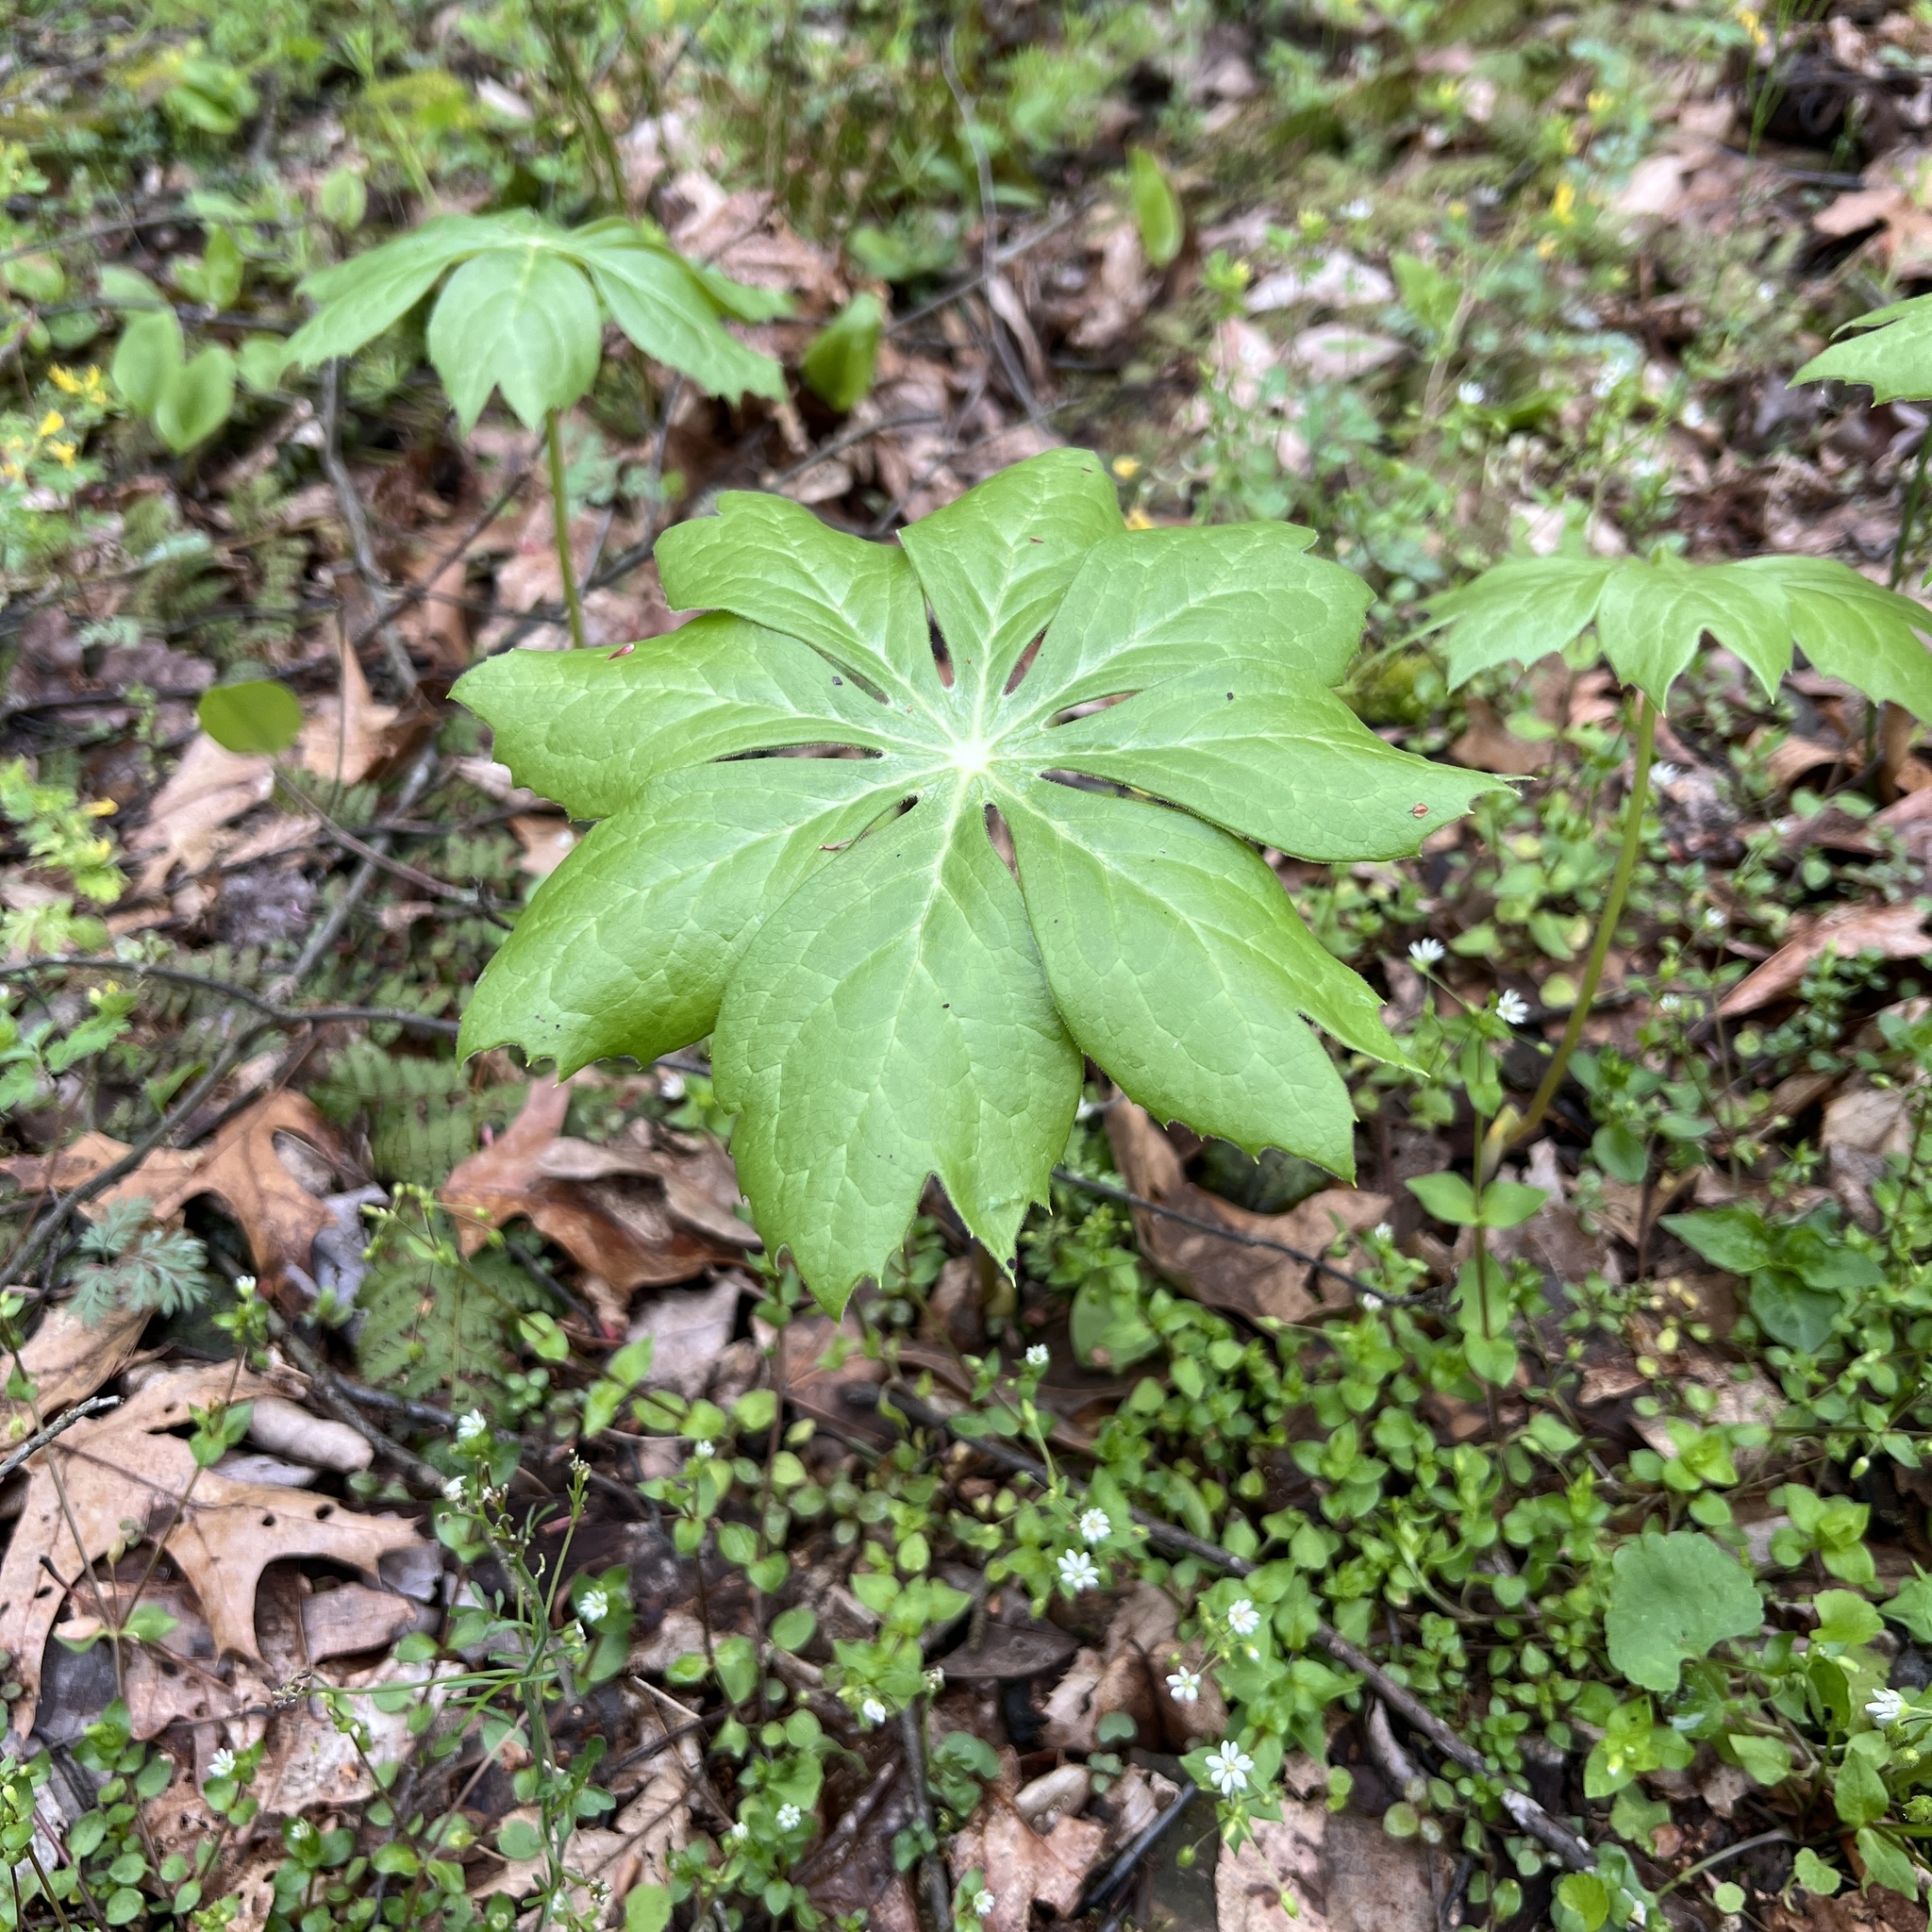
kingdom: Plantae
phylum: Tracheophyta
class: Magnoliopsida
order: Ranunculales
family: Berberidaceae
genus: Podophyllum
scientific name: Podophyllum peltatum
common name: Wild mandrake
